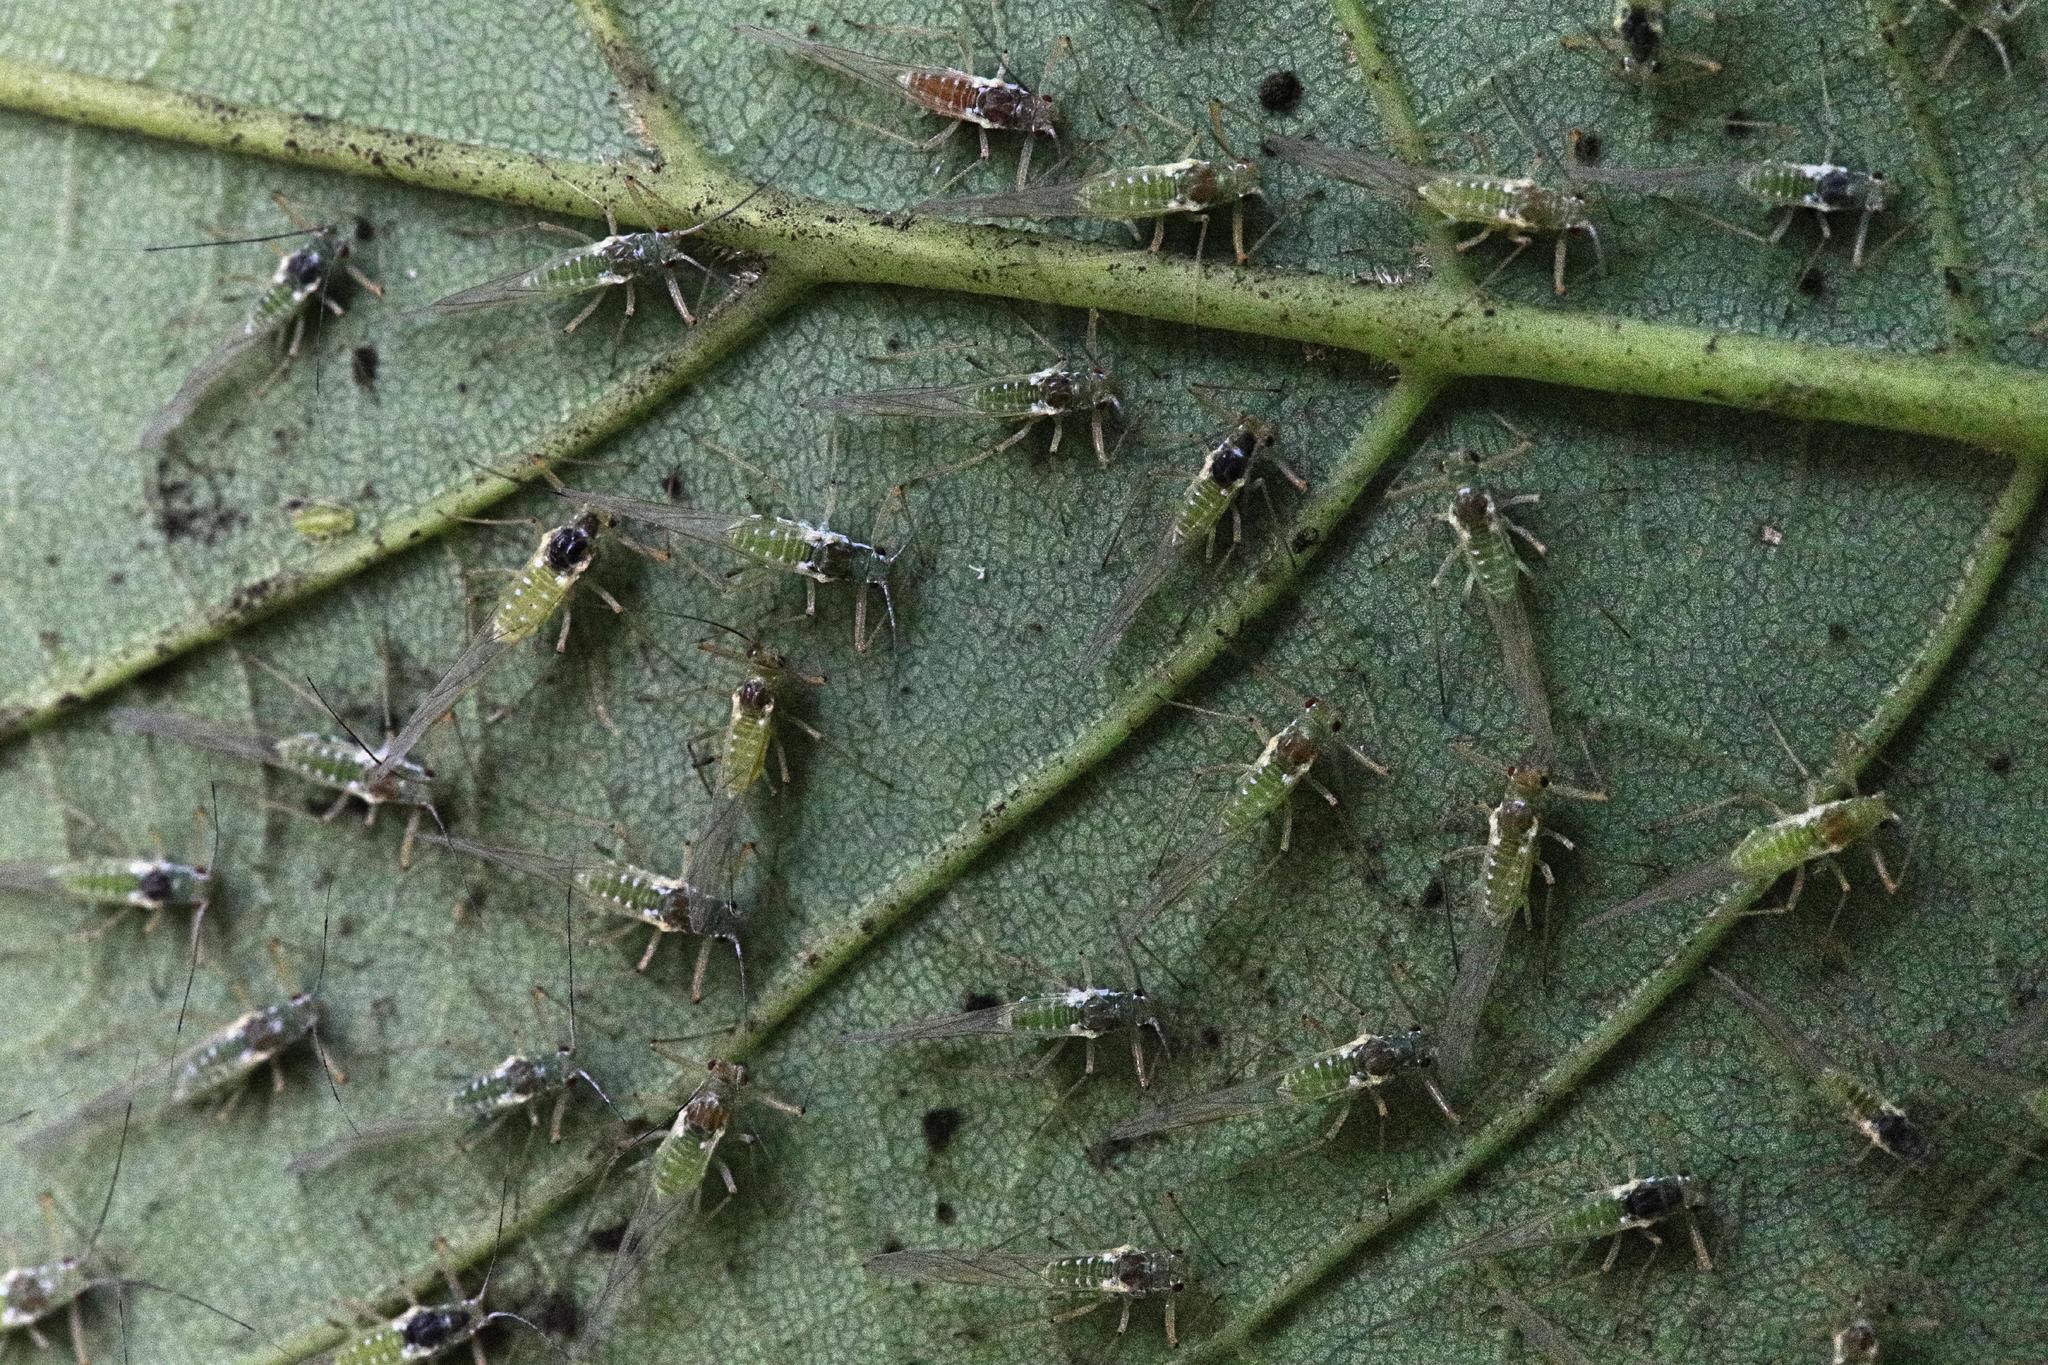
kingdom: Animalia
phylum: Arthropoda
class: Insecta
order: Hemiptera
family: Aphididae
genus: Drepanosiphum
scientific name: Drepanosiphum platanoidis
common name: Common sycamore aphid
